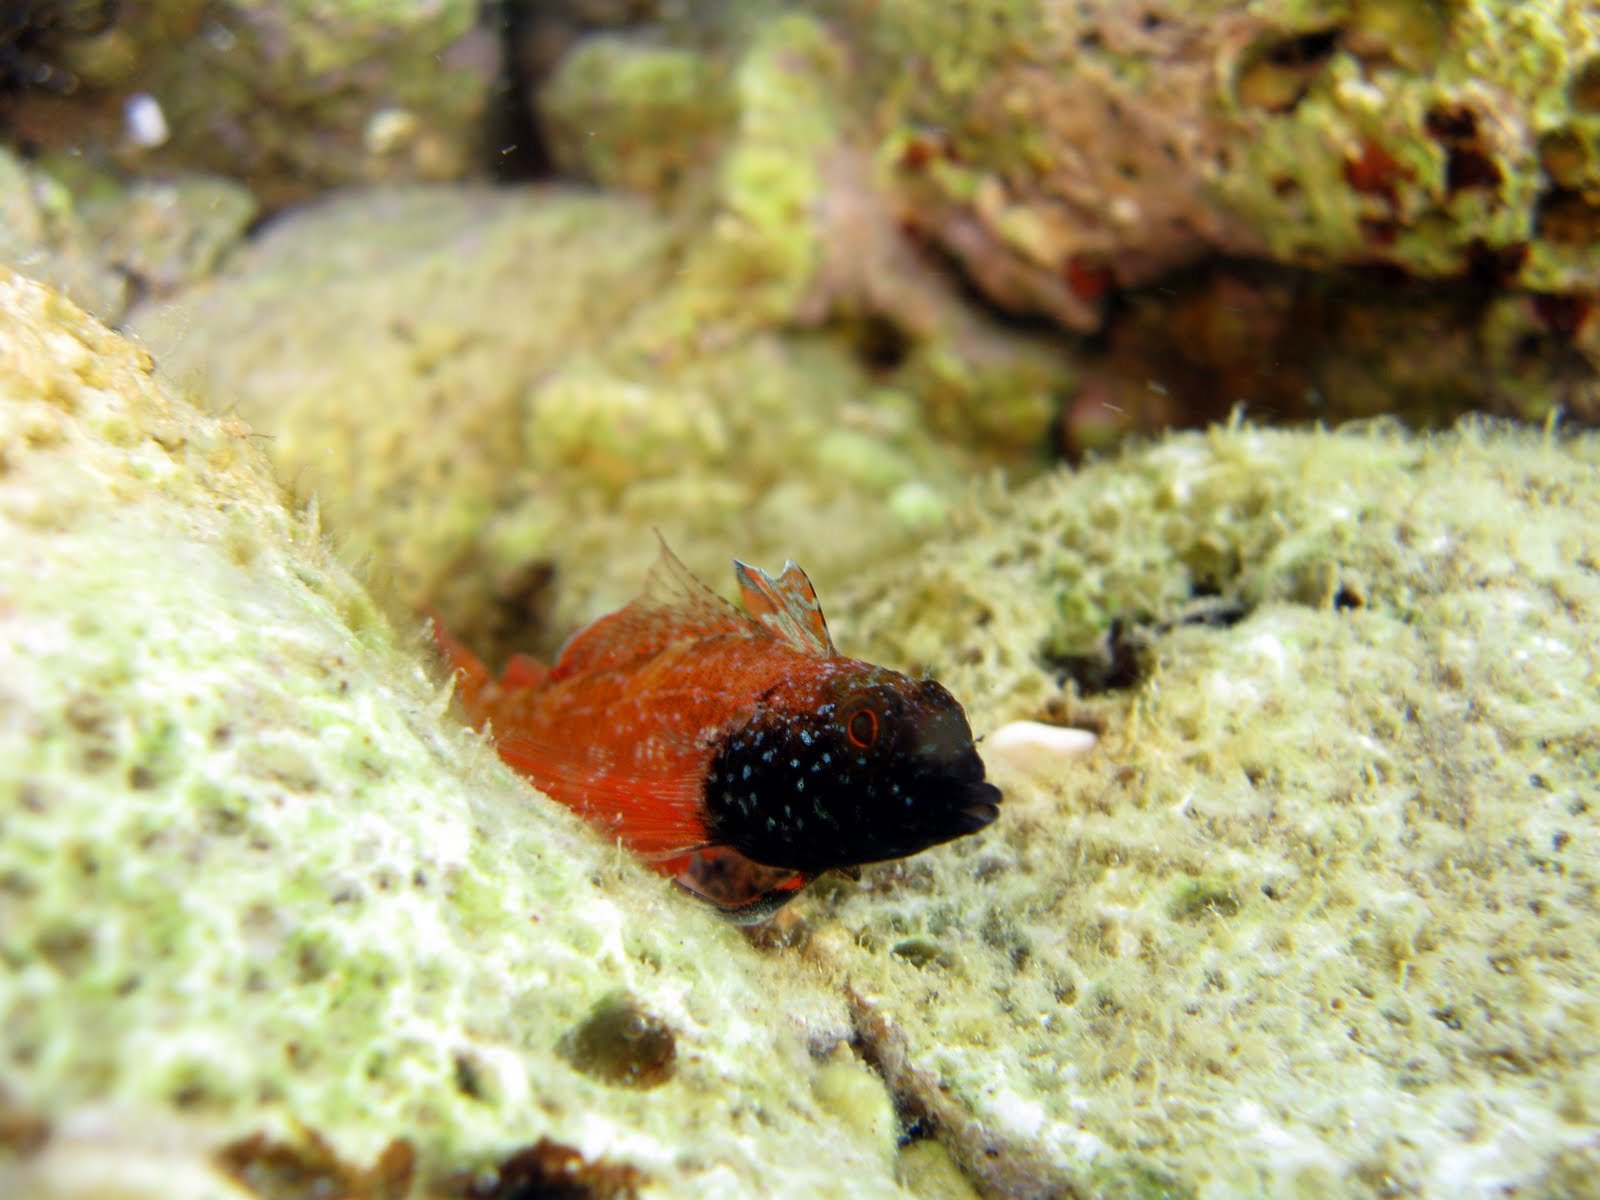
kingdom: Animalia
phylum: Chordata
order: Perciformes
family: Tripterygiidae
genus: Tripterygion
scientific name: Tripterygion tripteronotum
